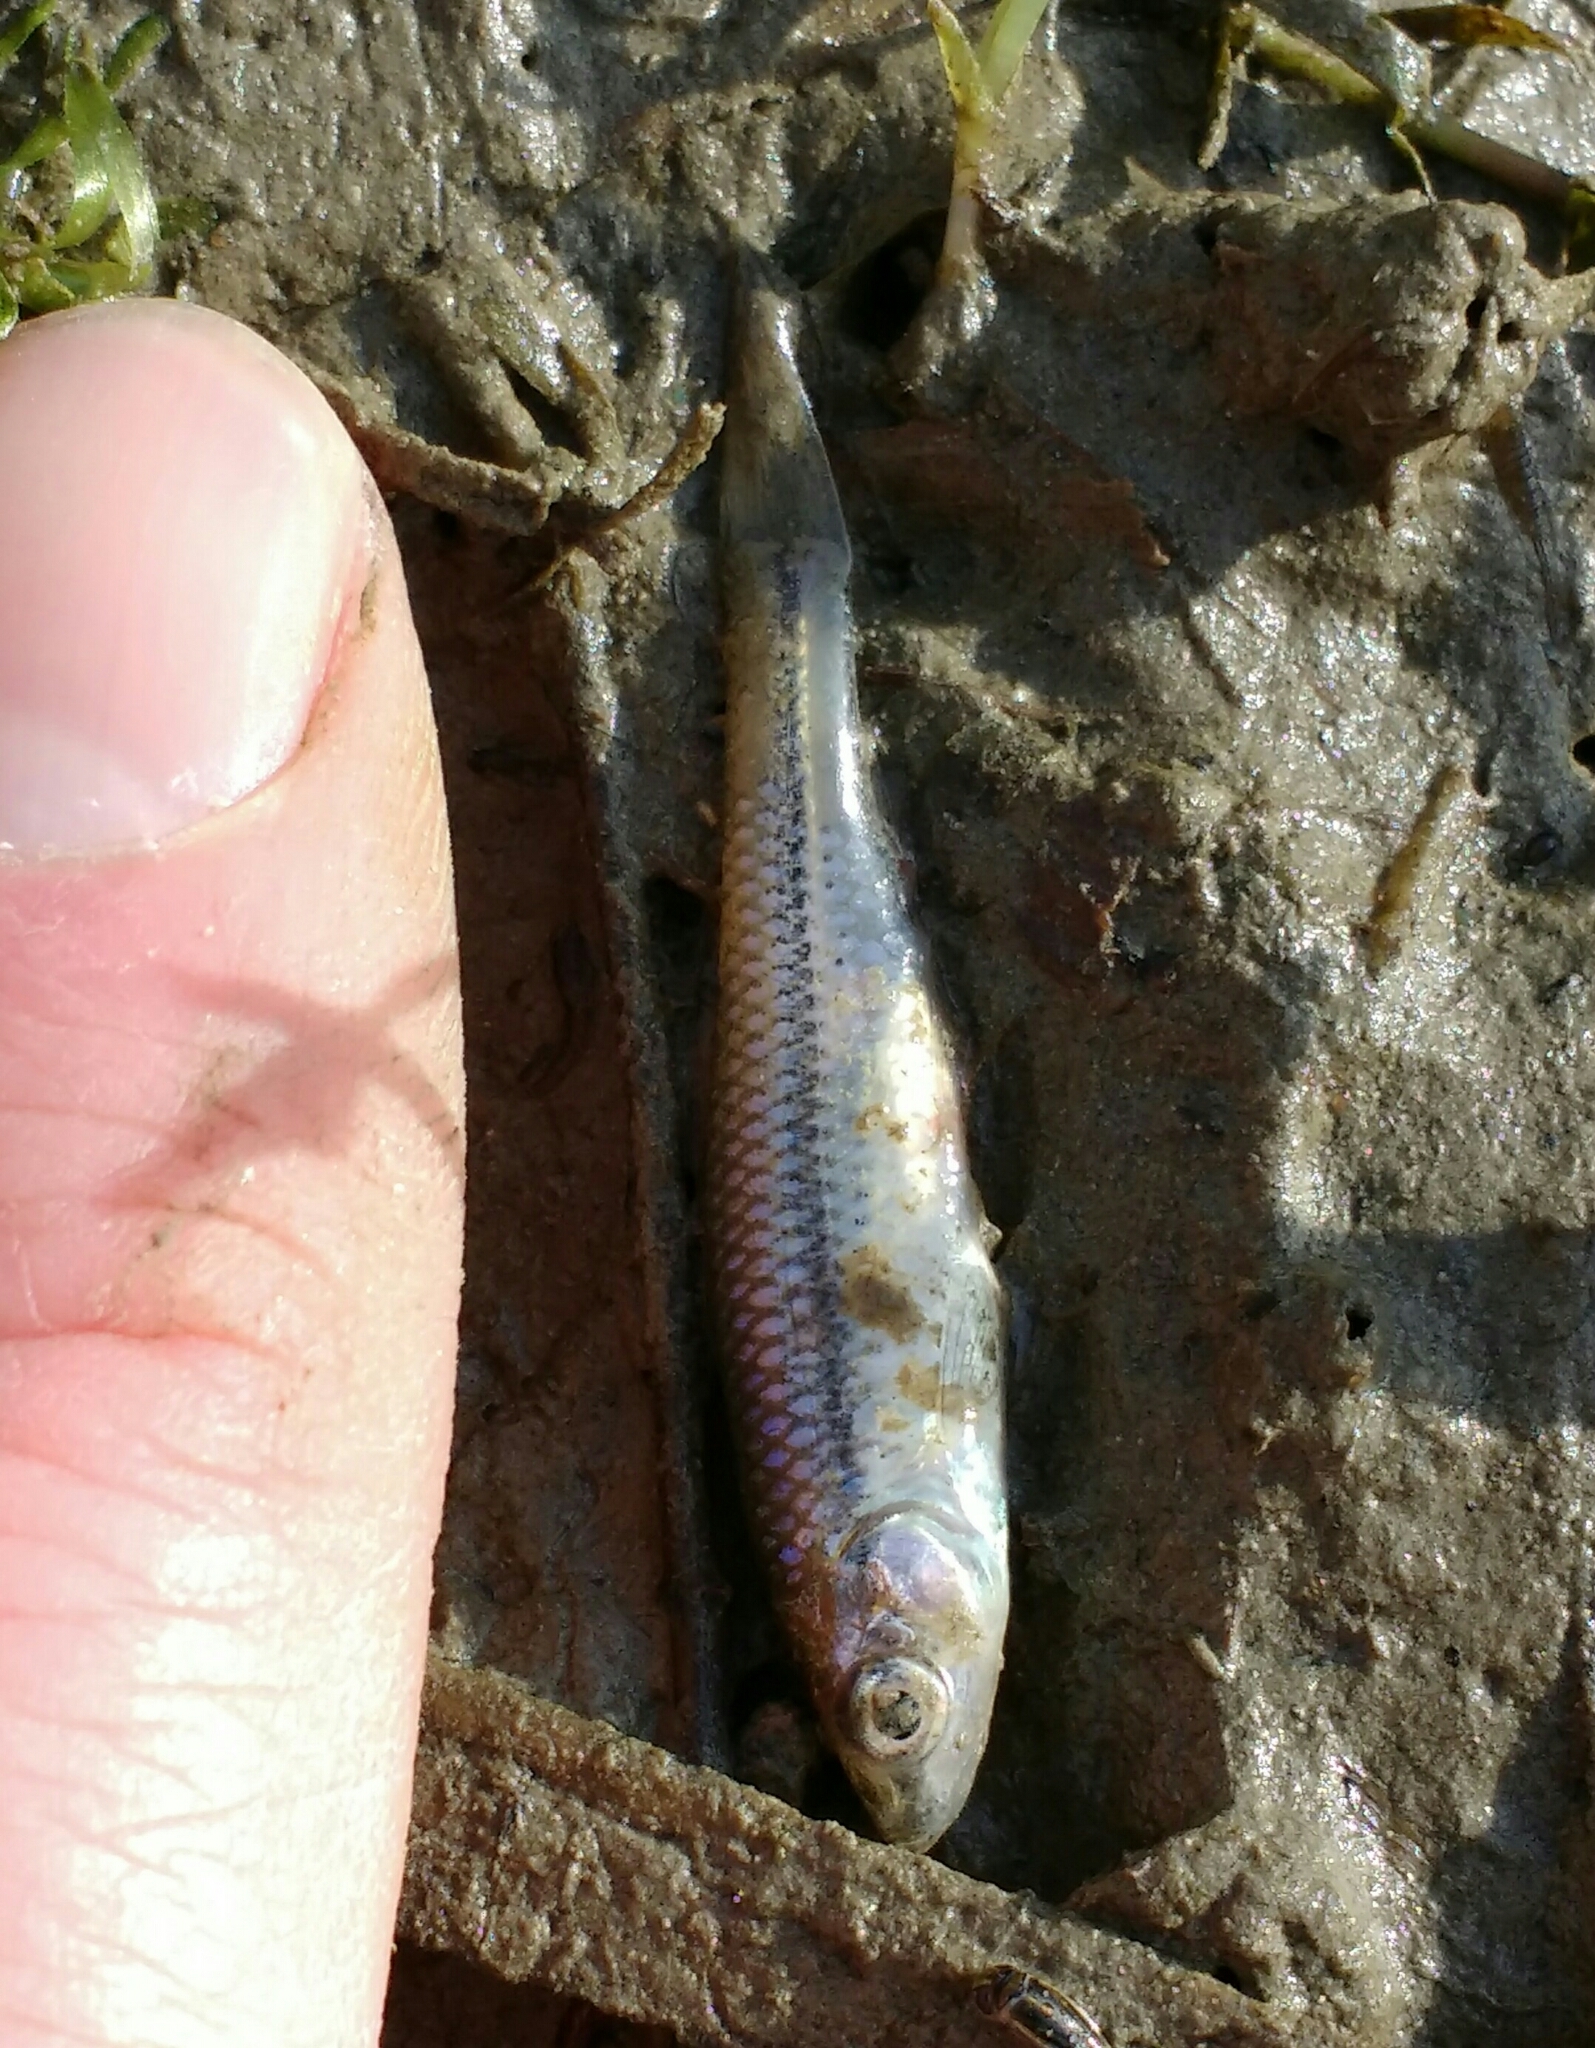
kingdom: Animalia
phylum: Chordata
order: Cypriniformes
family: Cyprinidae
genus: Pseudorasbora
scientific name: Pseudorasbora parva
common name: Topmouth gudgeon
